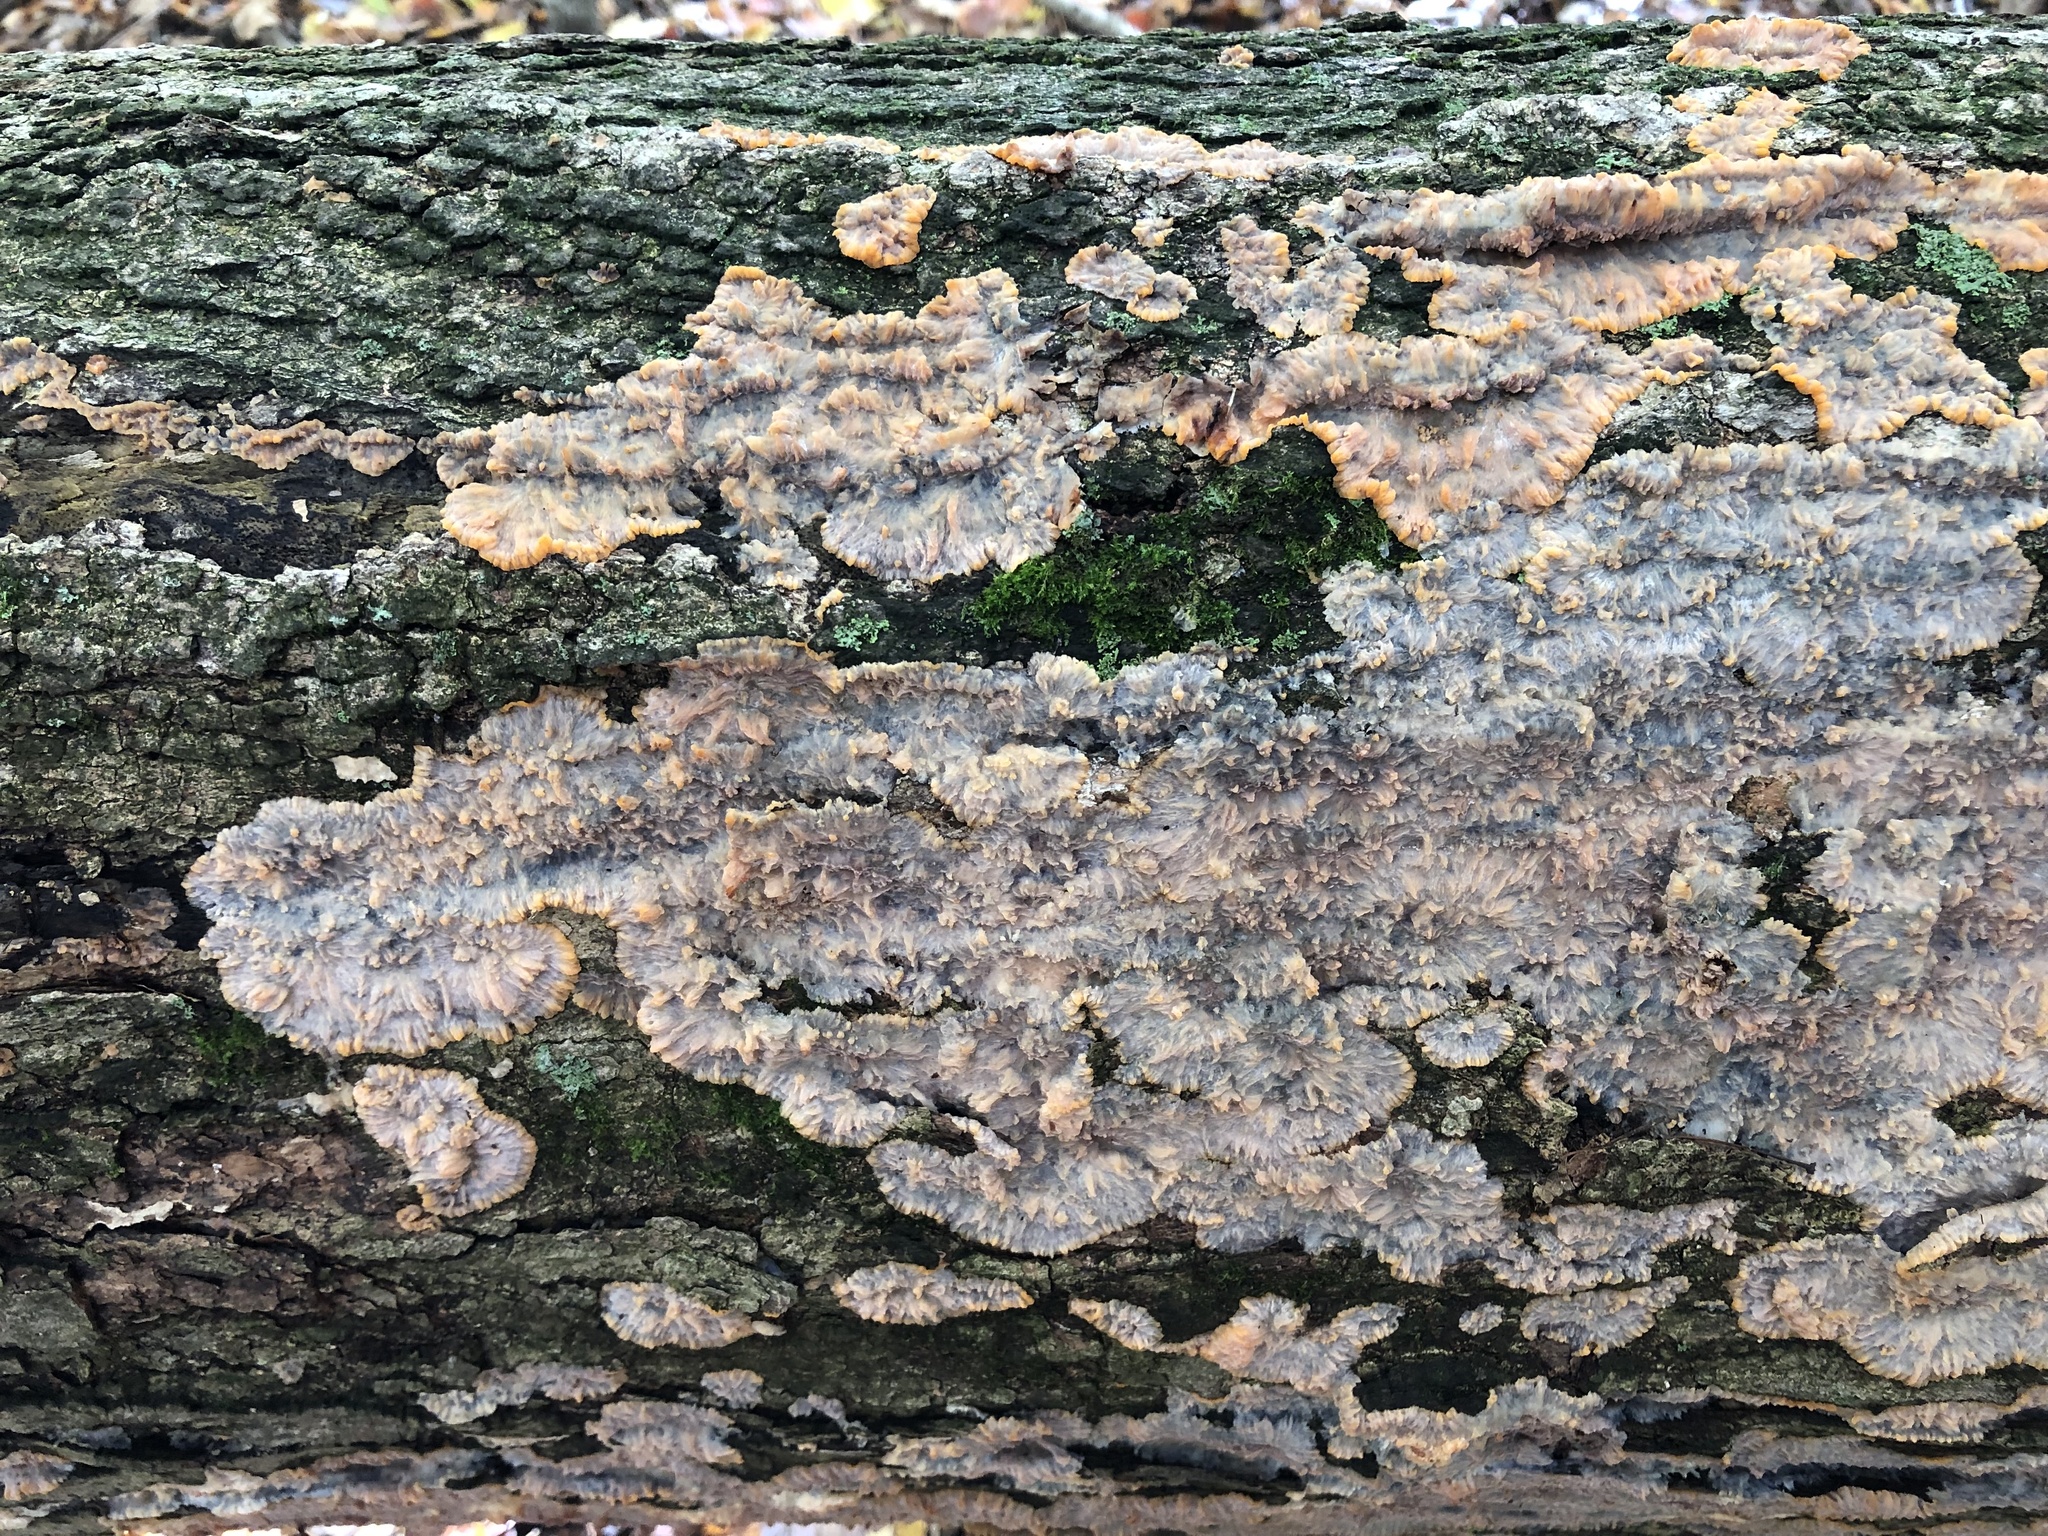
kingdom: Fungi
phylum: Basidiomycota
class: Agaricomycetes
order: Polyporales
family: Meruliaceae
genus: Phlebia
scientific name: Phlebia radiata
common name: Wrinkled crust
